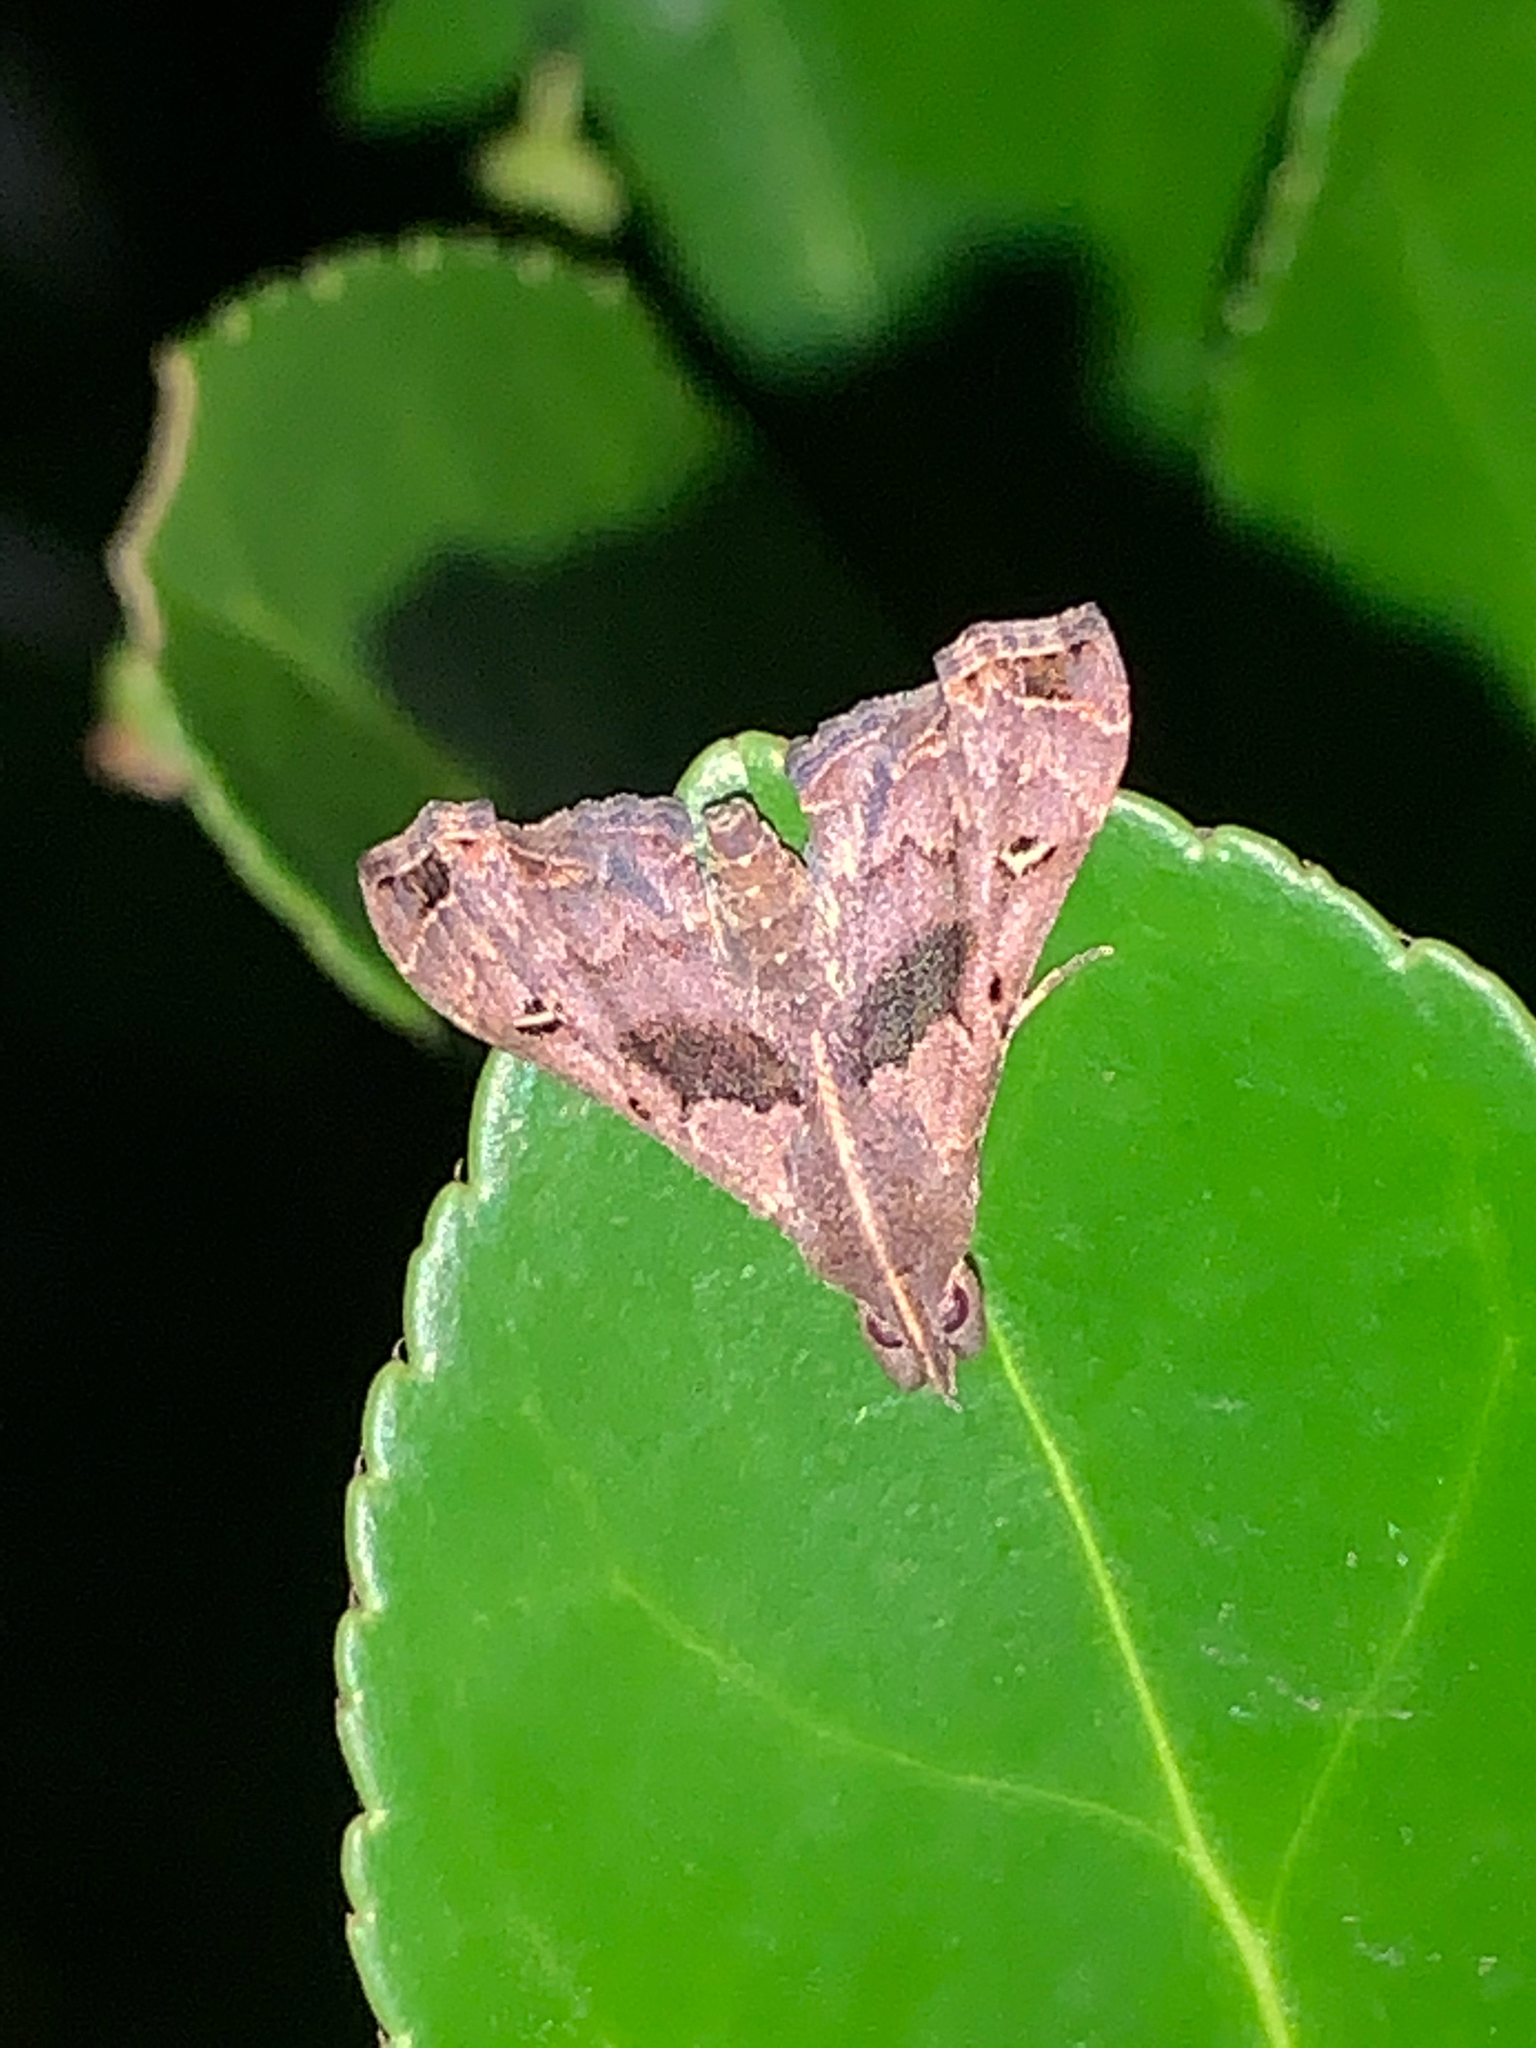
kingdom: Animalia
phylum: Arthropoda
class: Insecta
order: Lepidoptera
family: Erebidae
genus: Palthis
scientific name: Palthis asopialis
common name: Faint-spotted palthis moth
